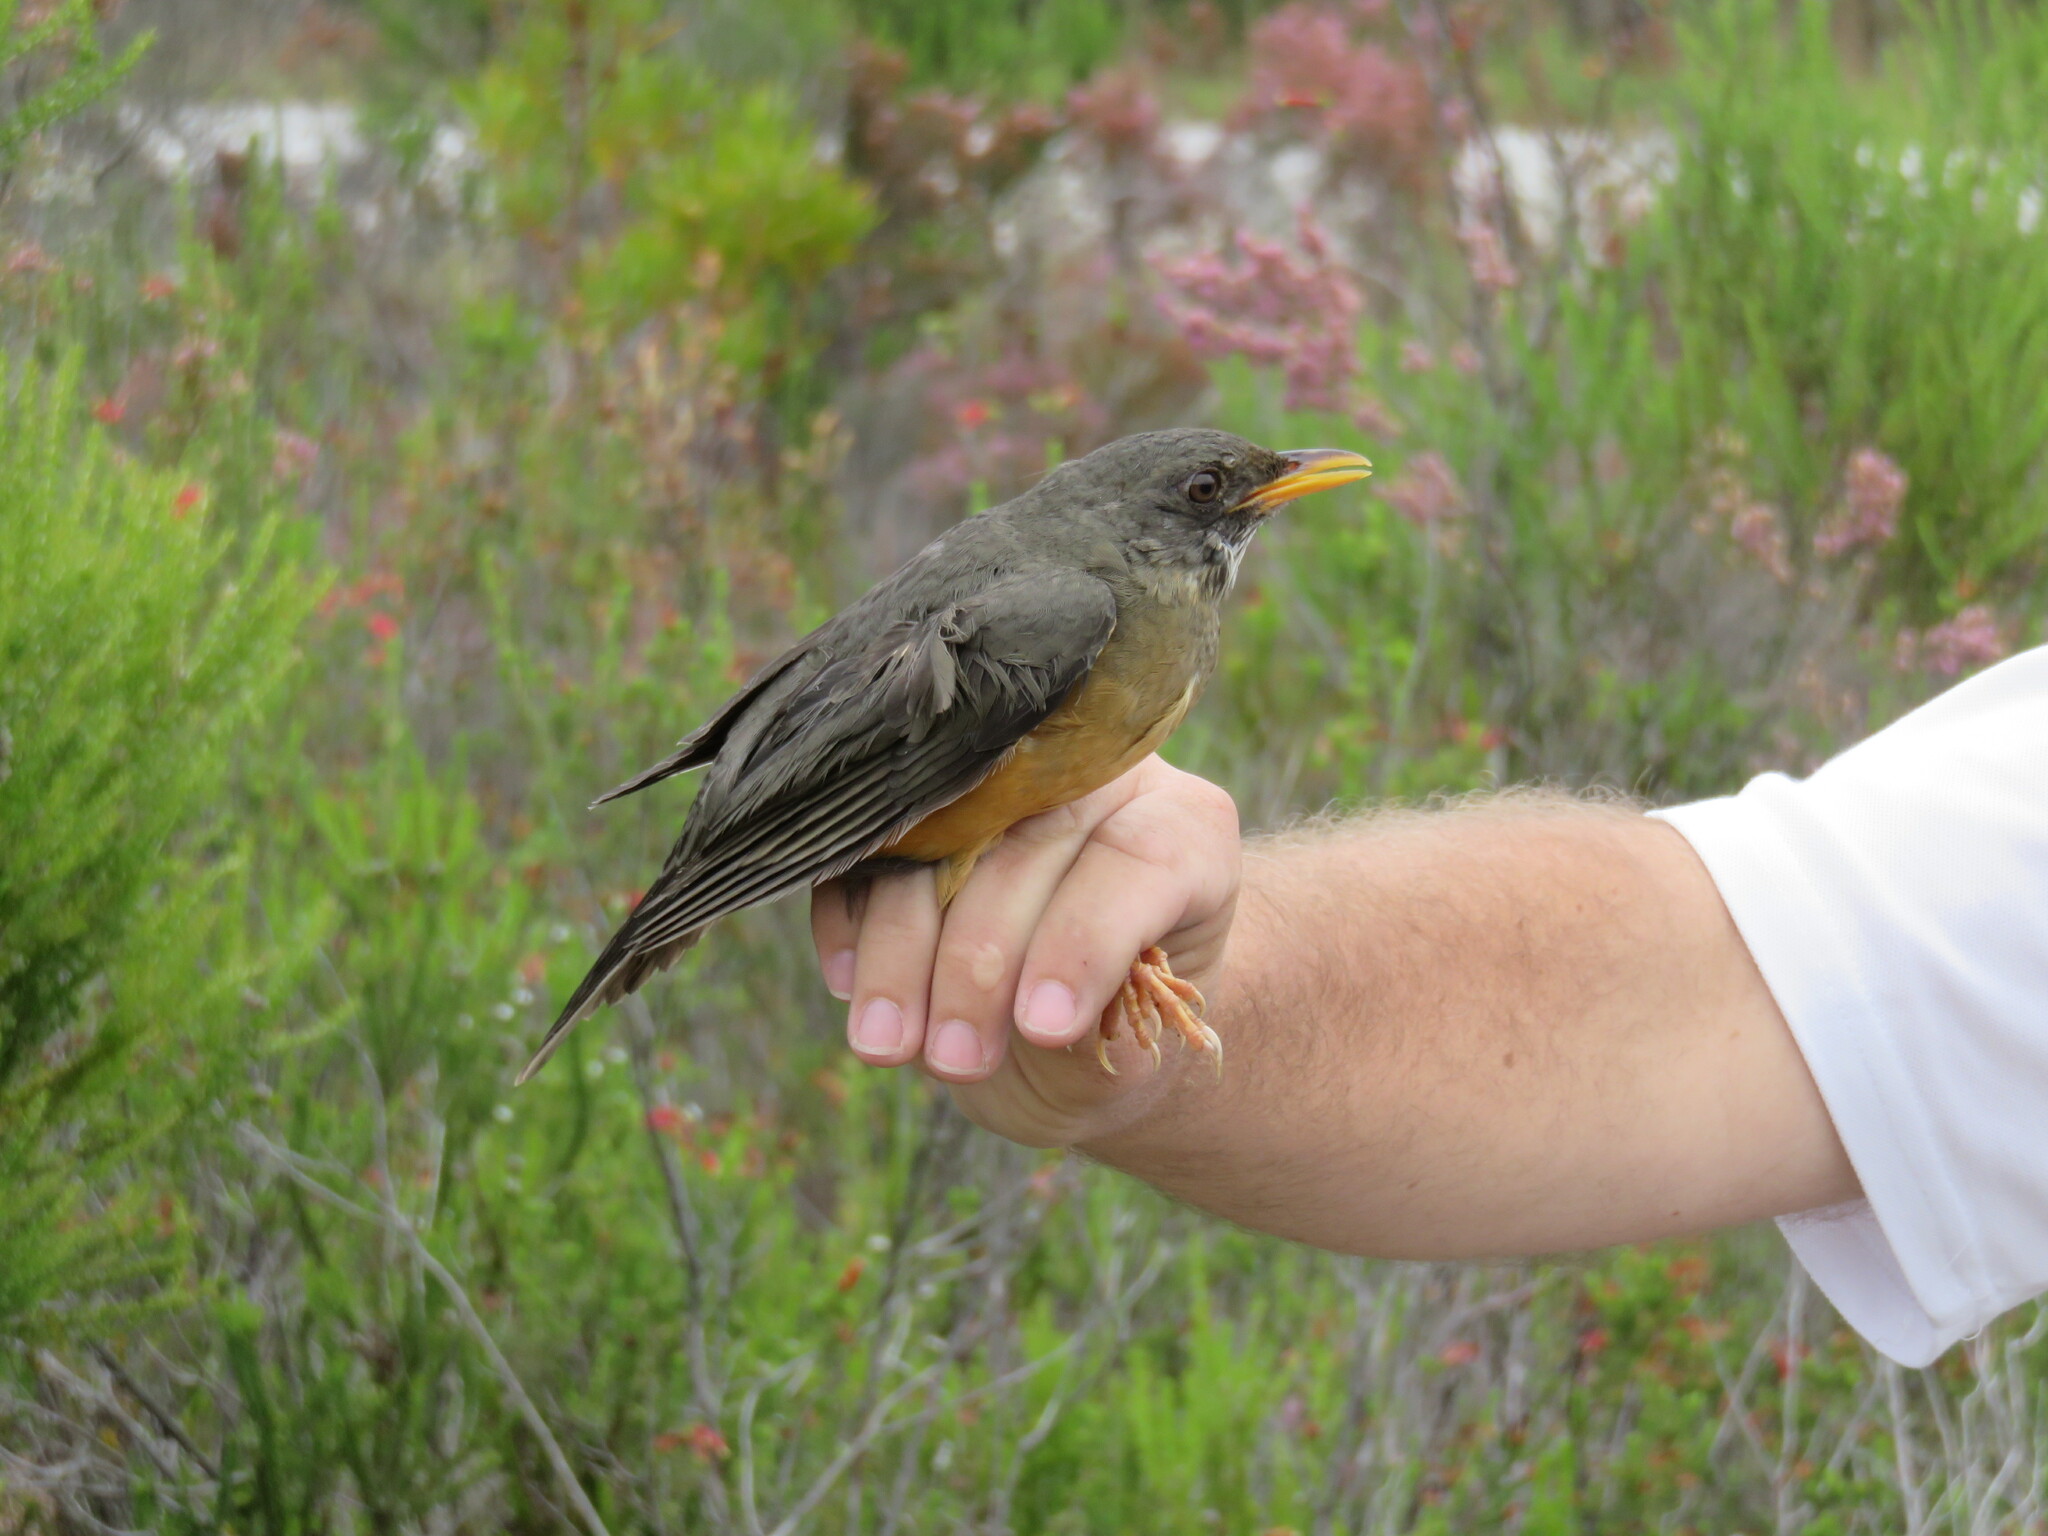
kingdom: Animalia
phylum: Chordata
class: Aves
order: Passeriformes
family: Turdidae
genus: Turdus
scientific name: Turdus olivaceus
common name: Olive thrush
